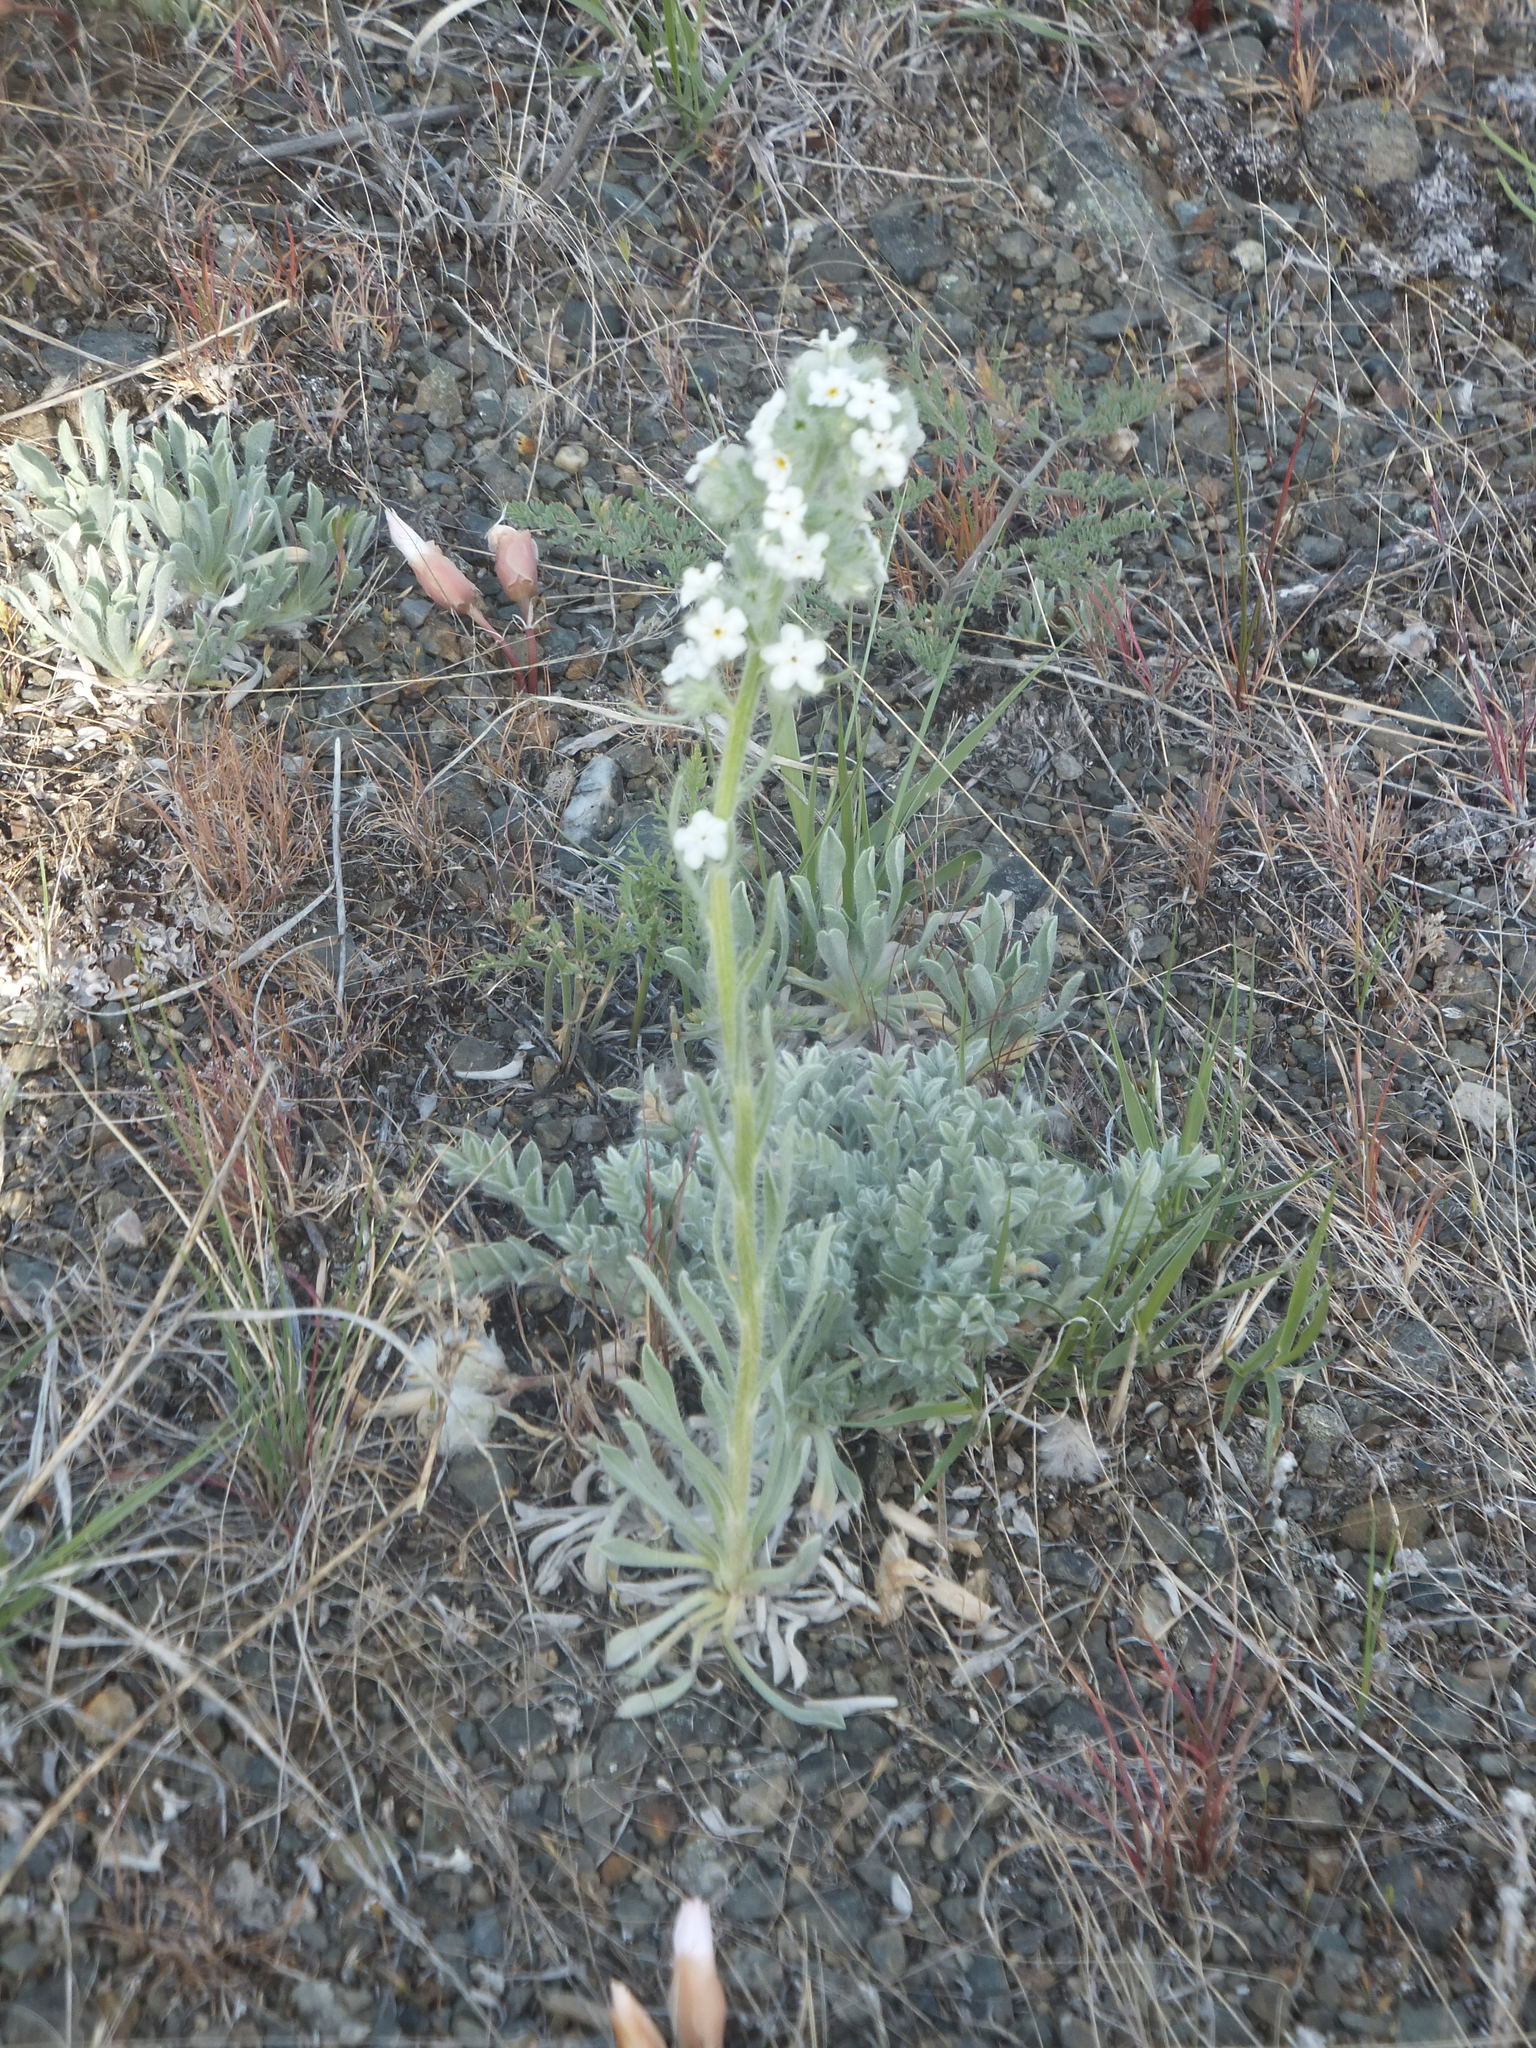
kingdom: Plantae
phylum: Tracheophyta
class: Magnoliopsida
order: Boraginales
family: Boraginaceae
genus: Oreocarya
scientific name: Oreocarya glomerata
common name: Macoun's cryptantha
